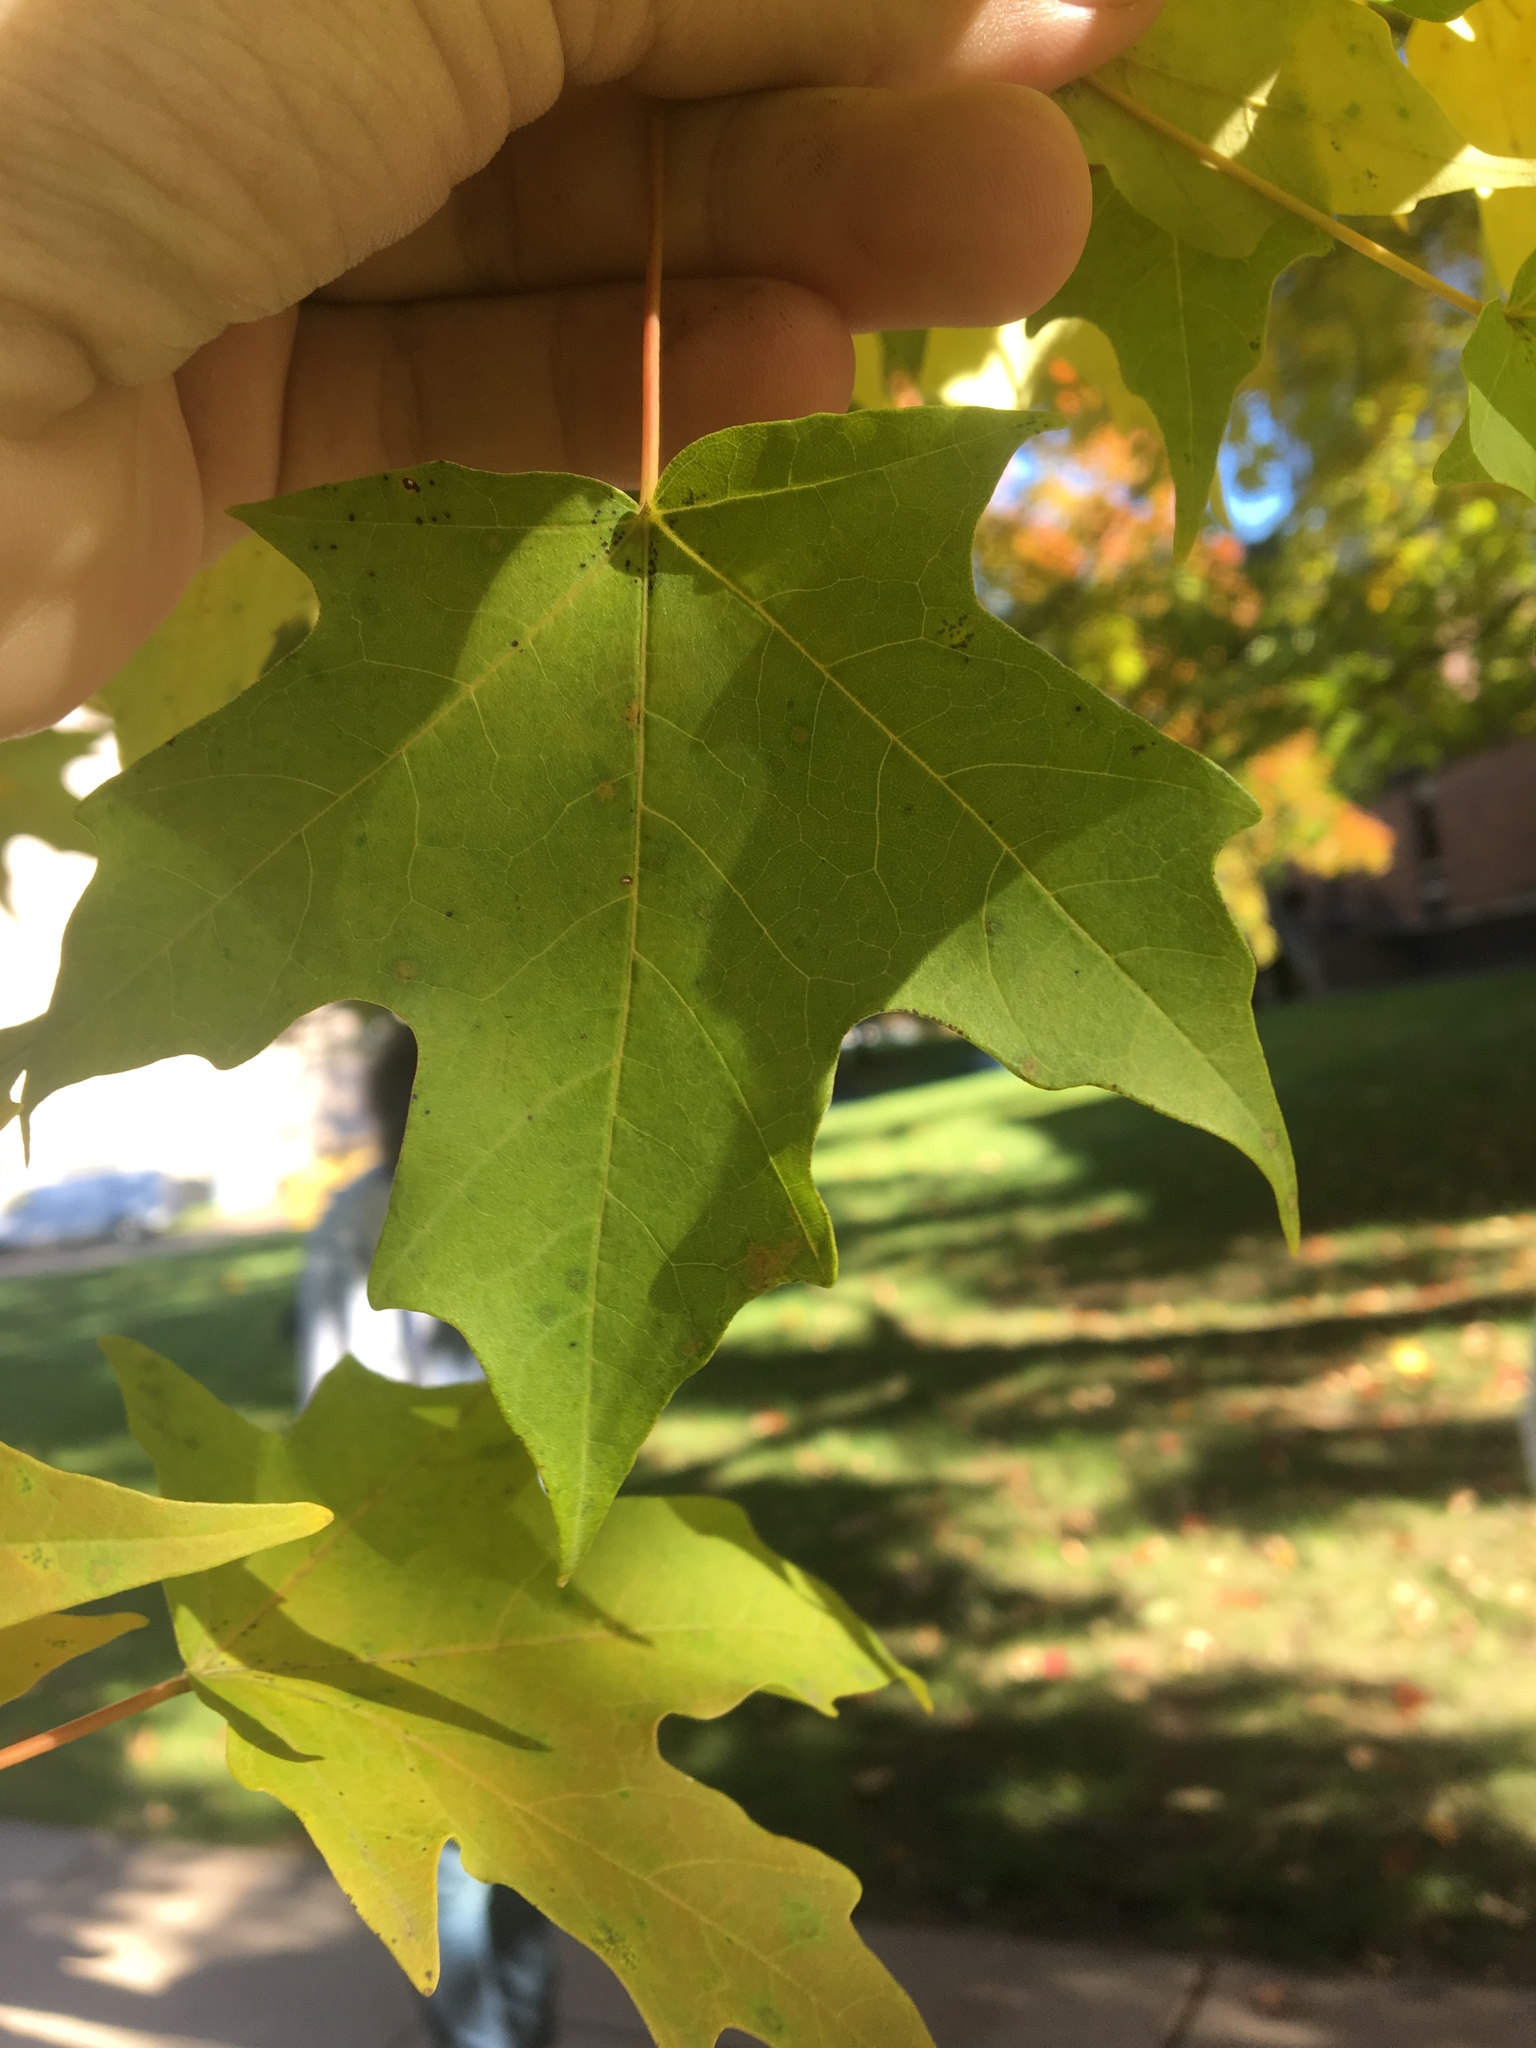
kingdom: Plantae
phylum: Tracheophyta
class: Magnoliopsida
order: Sapindales
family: Sapindaceae
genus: Acer
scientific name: Acer saccharum
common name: Sugar maple
